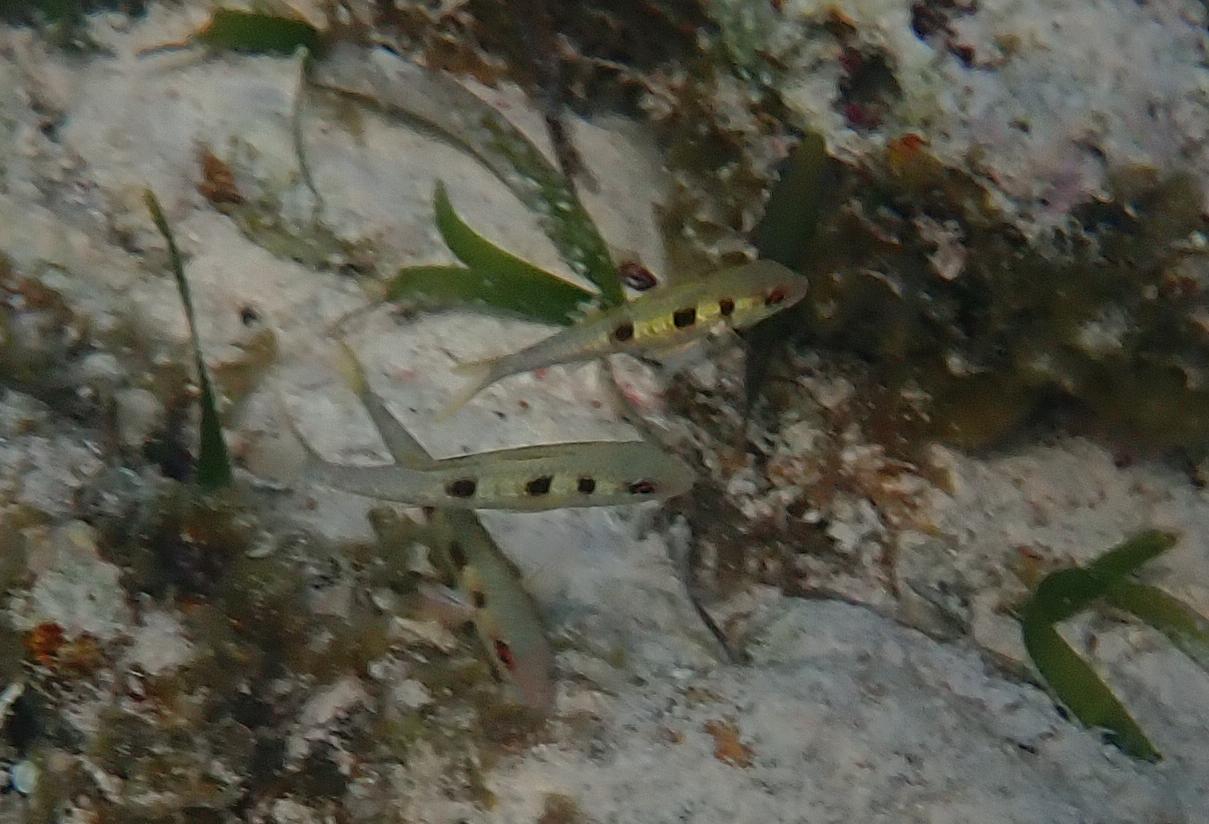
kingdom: Animalia
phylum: Chordata
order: Perciformes
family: Mullidae
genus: Pseudupeneus
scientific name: Pseudupeneus maculatus
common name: Spotted goatfish
